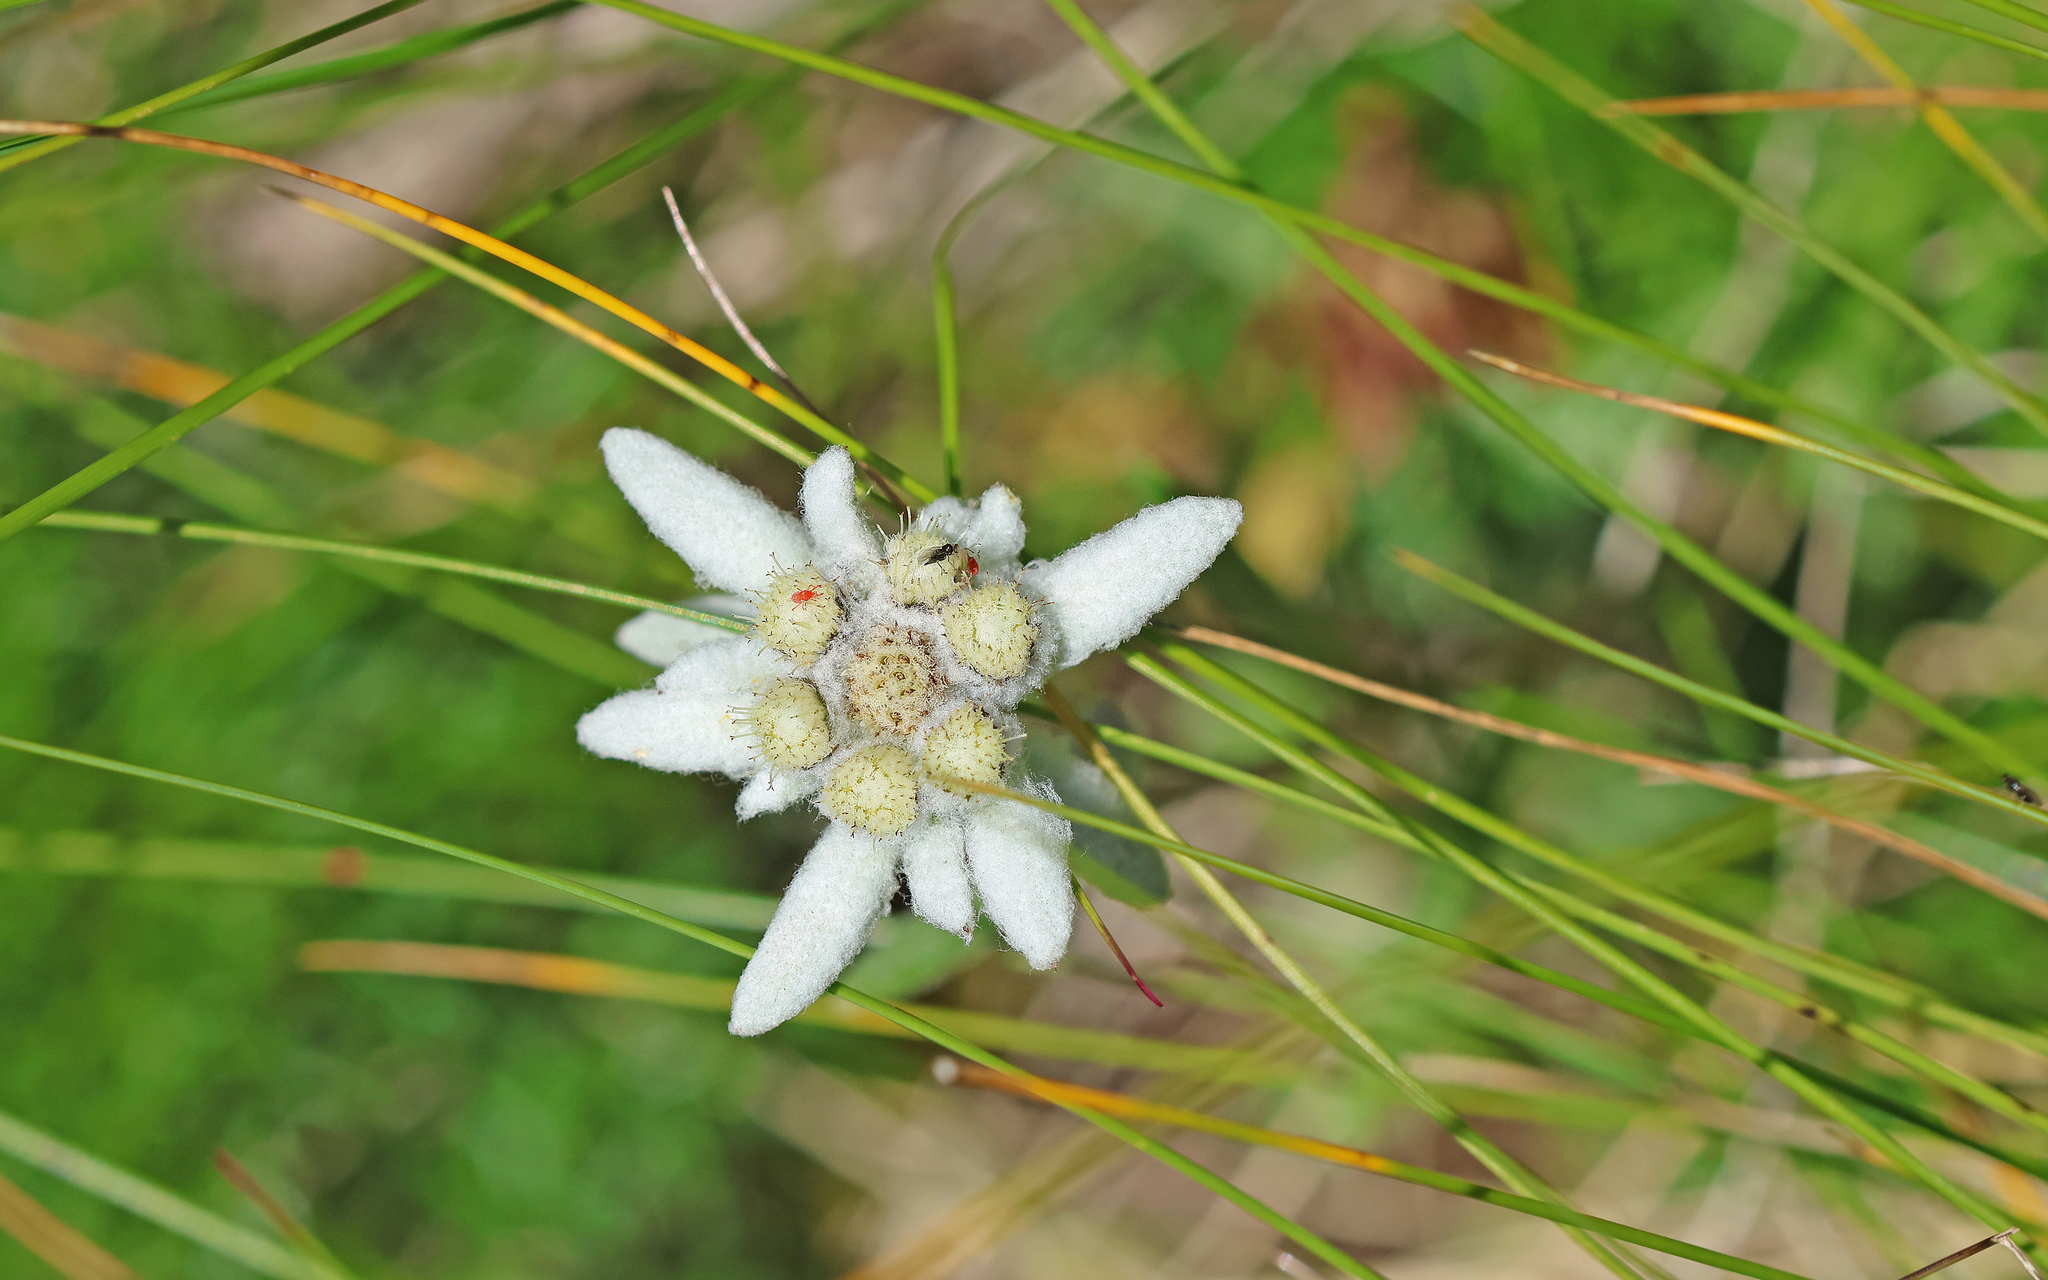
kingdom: Plantae
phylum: Tracheophyta
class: Magnoliopsida
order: Asterales
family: Asteraceae
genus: Leontopodium
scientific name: Leontopodium nivale
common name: Edelweiss
